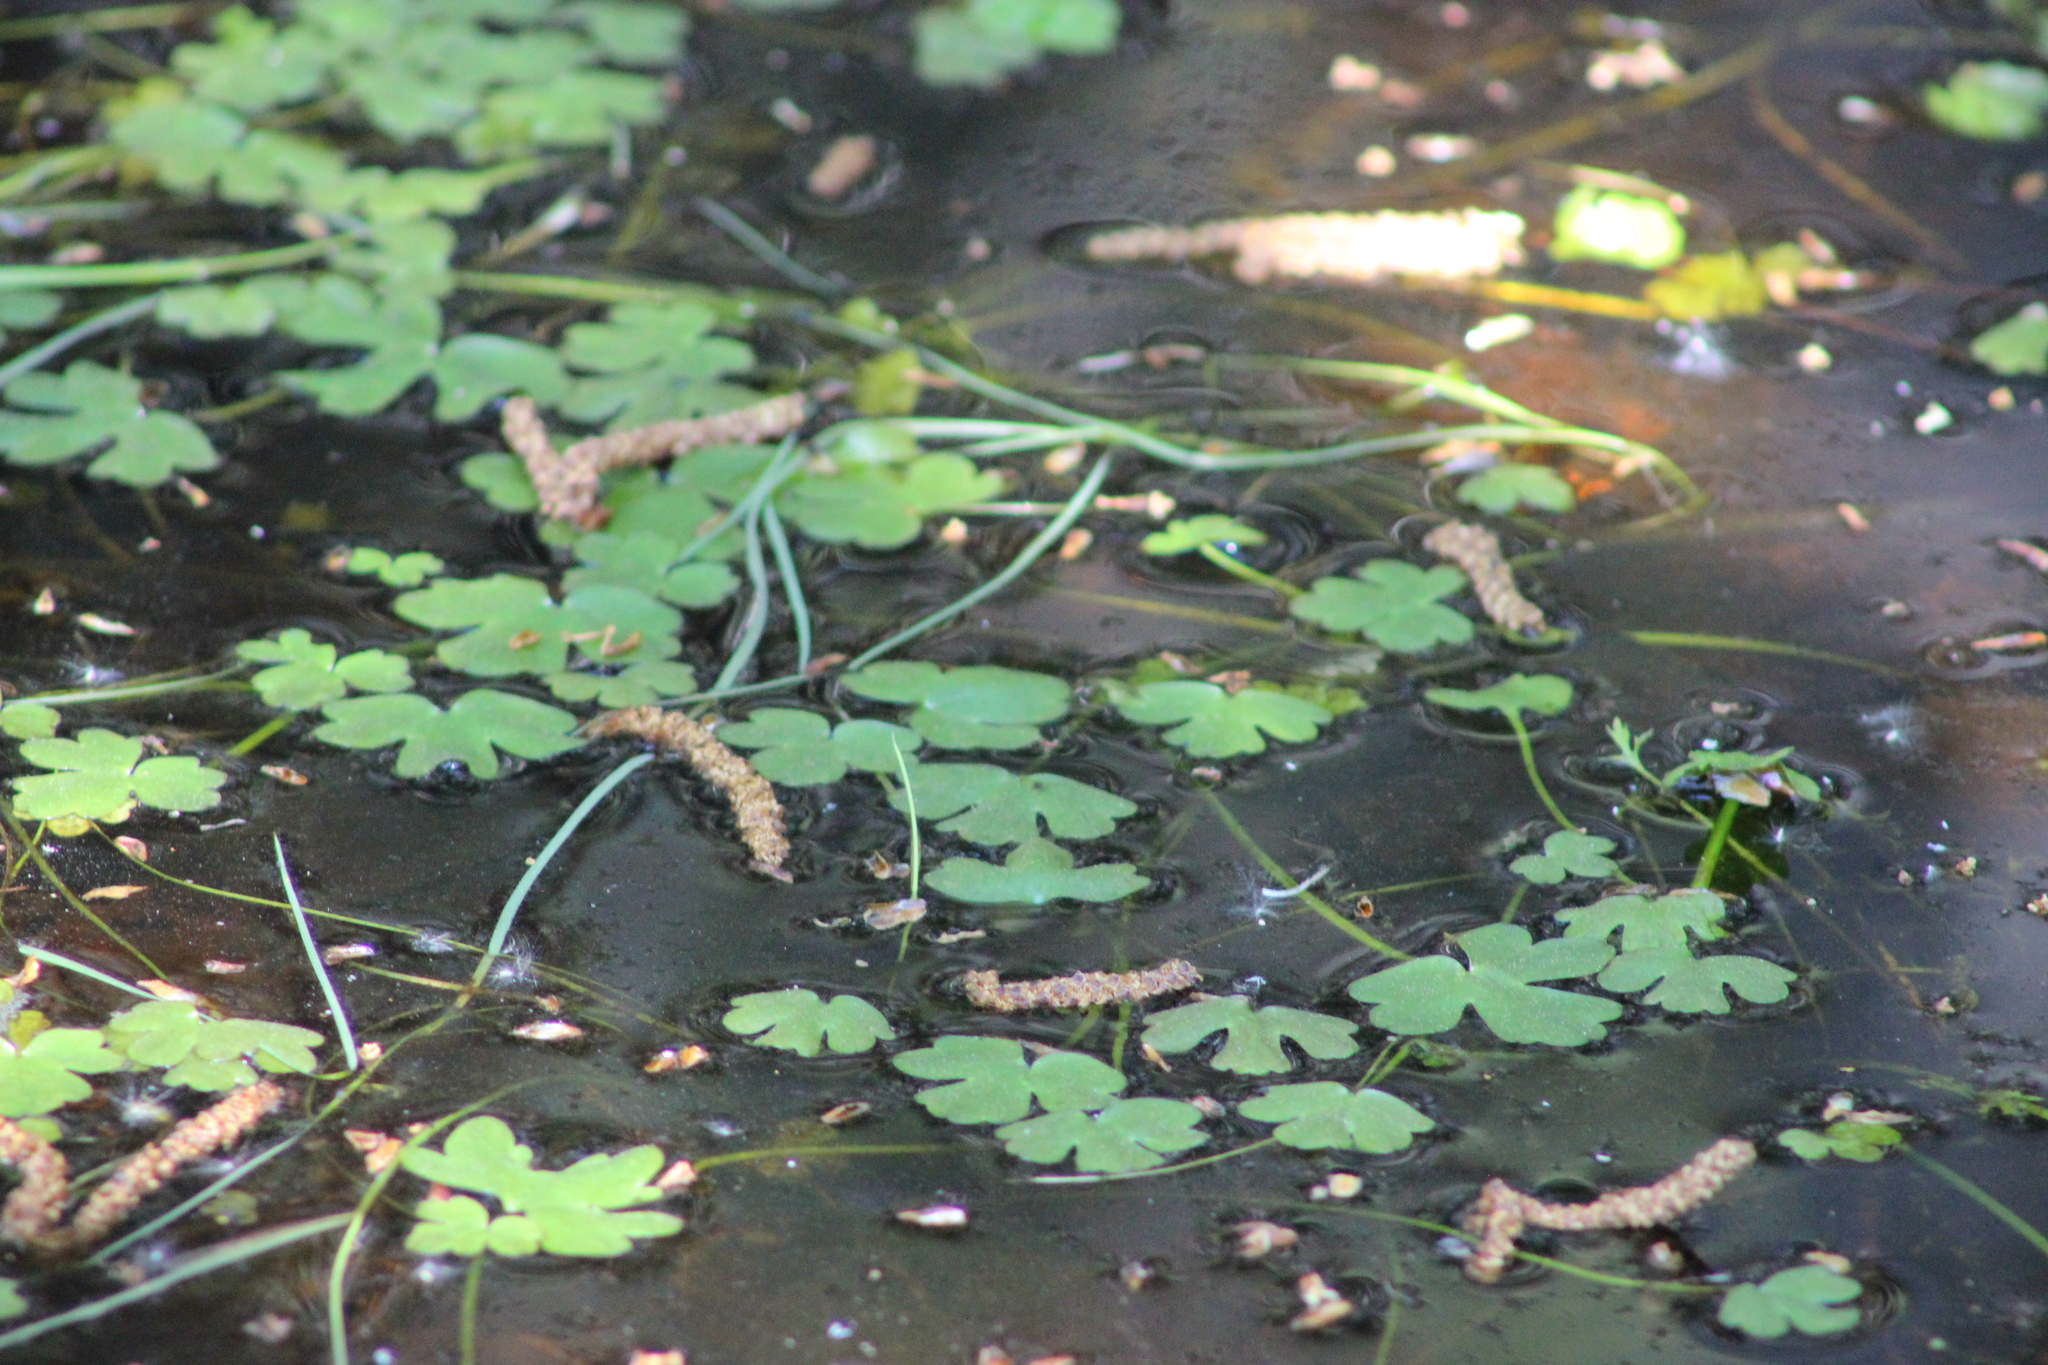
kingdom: Plantae
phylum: Tracheophyta
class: Magnoliopsida
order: Ranunculales
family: Ranunculaceae
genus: Ranunculus
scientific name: Ranunculus repens
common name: Creeping buttercup
